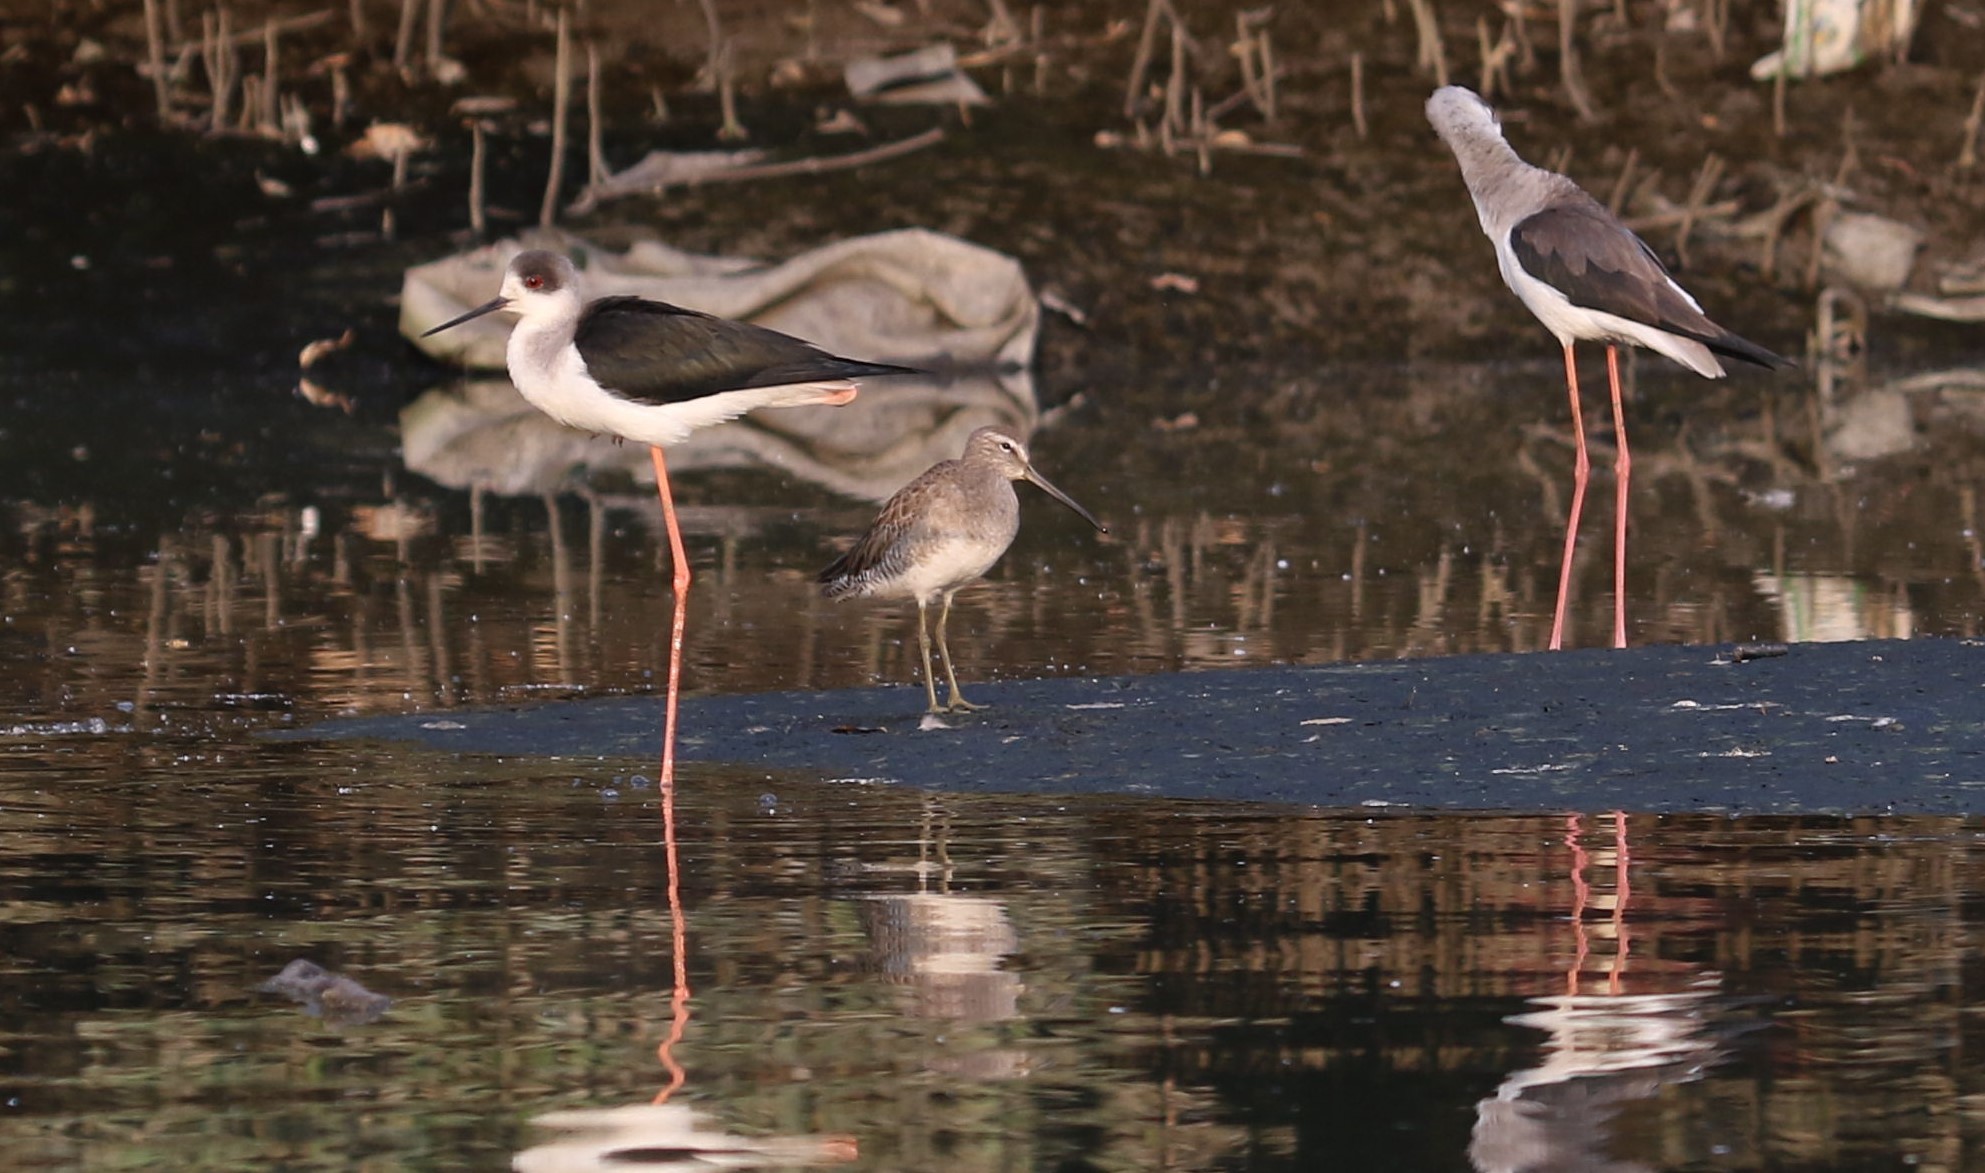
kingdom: Animalia
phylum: Chordata
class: Aves
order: Charadriiformes
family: Scolopacidae
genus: Limnodromus
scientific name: Limnodromus scolopaceus
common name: Long-billed dowitcher
